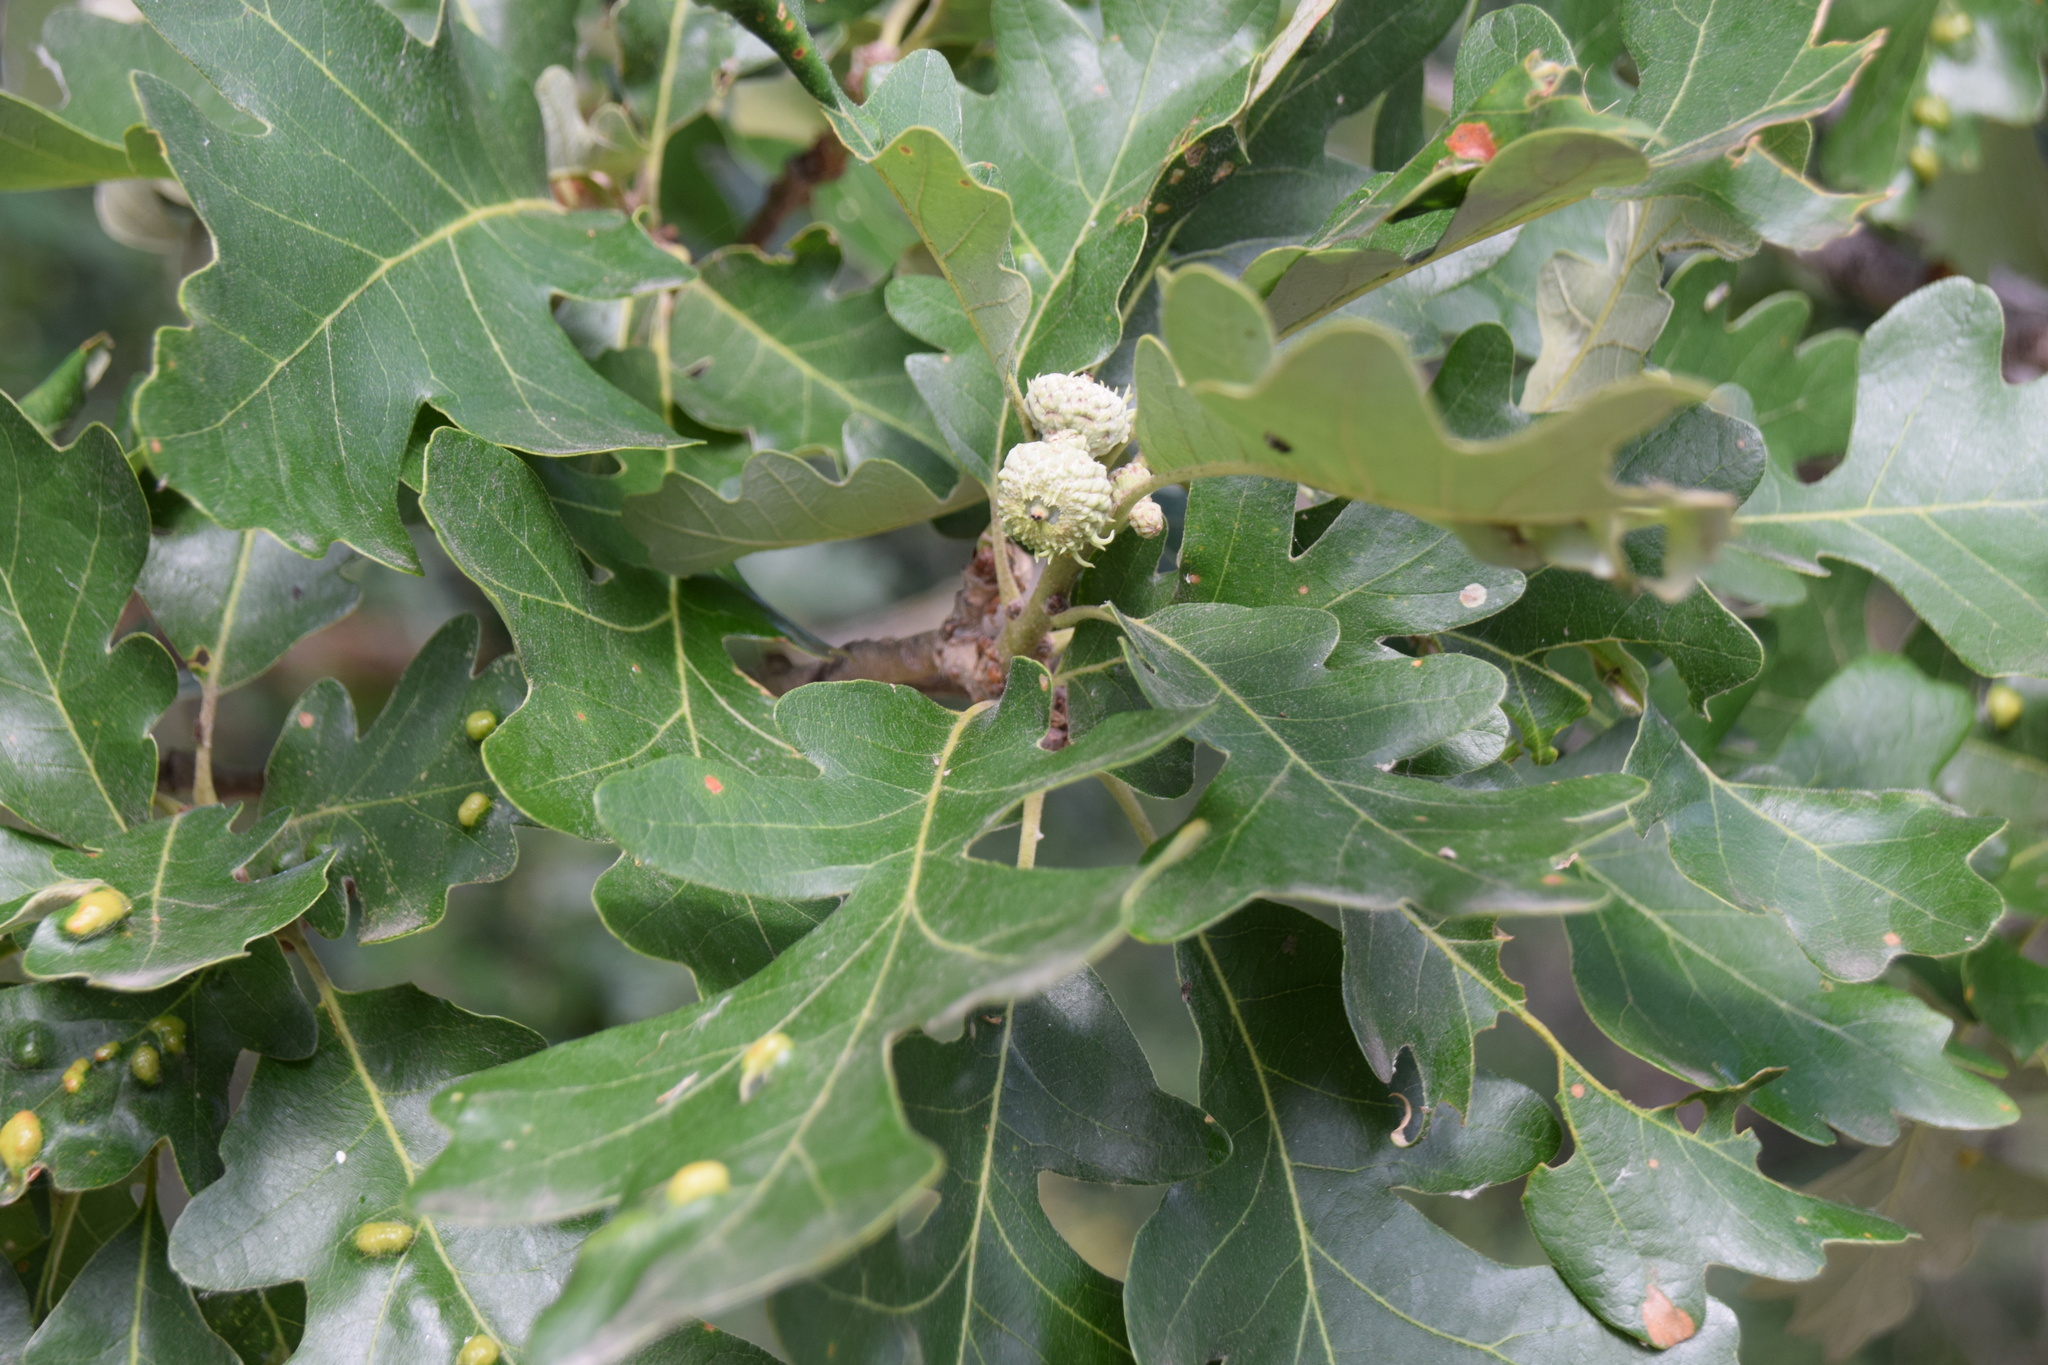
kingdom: Plantae
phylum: Tracheophyta
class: Magnoliopsida
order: Fagales
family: Fagaceae
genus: Quercus
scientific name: Quercus macrocarpa
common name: Bur oak
